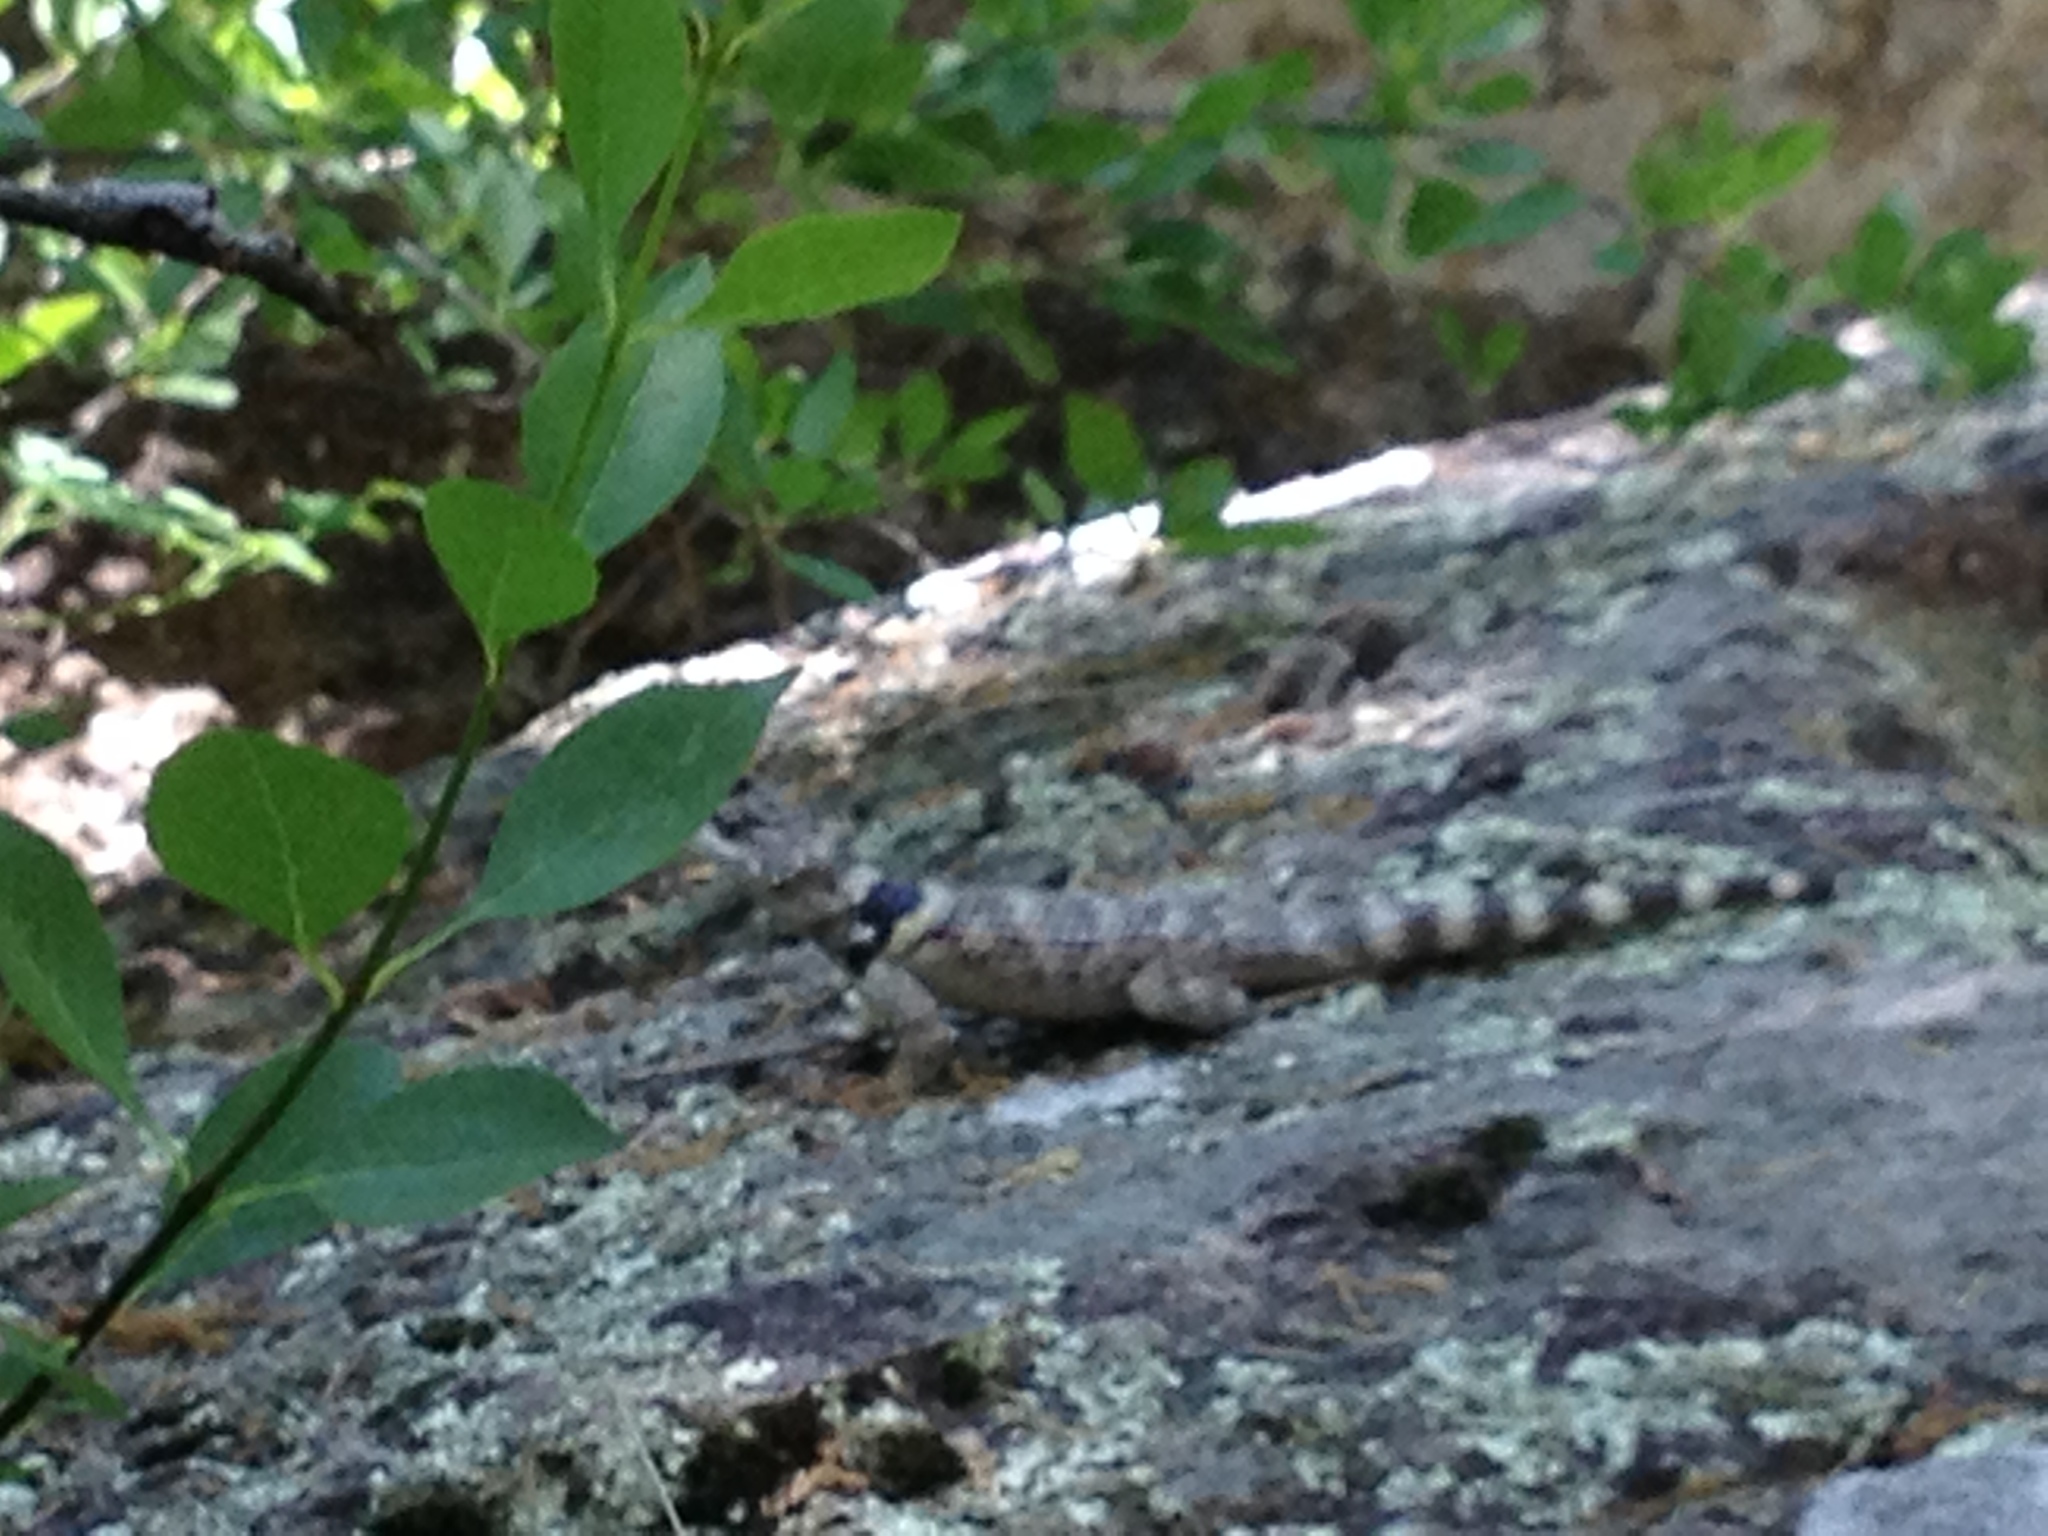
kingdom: Animalia
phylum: Chordata
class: Squamata
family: Phrynosomatidae
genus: Sceloporus
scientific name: Sceloporus poinsettii
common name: Crevice spiny lizard
